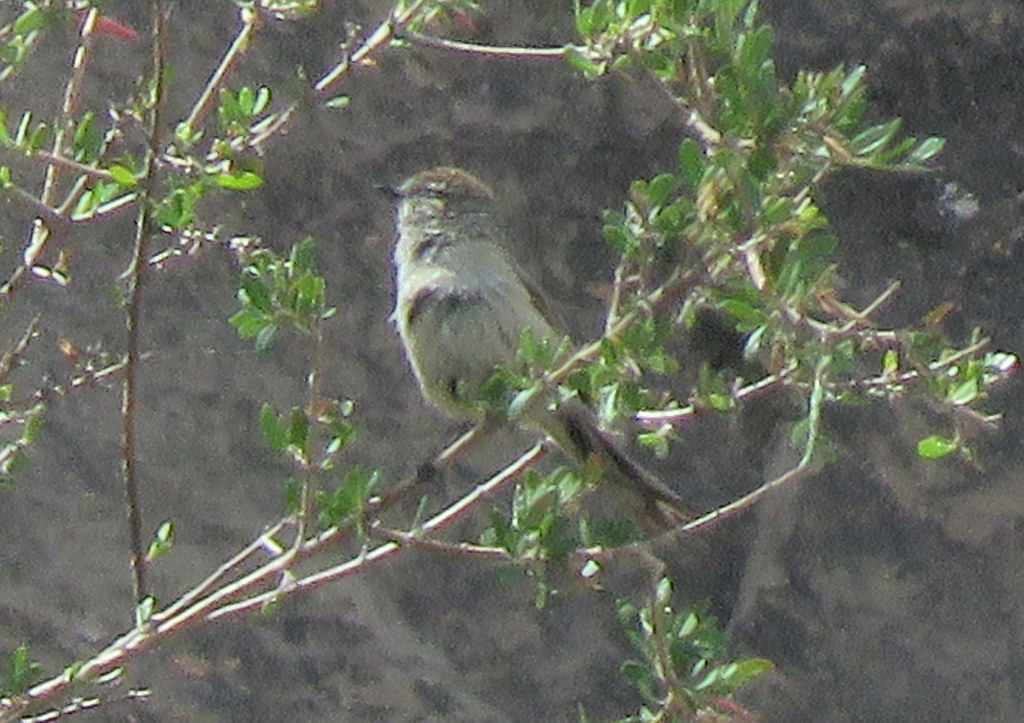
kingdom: Animalia
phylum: Chordata
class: Aves
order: Passeriformes
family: Furnariidae
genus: Leptasthenura
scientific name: Leptasthenura aegithaloides
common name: Plain-mantled tit-spinetail
